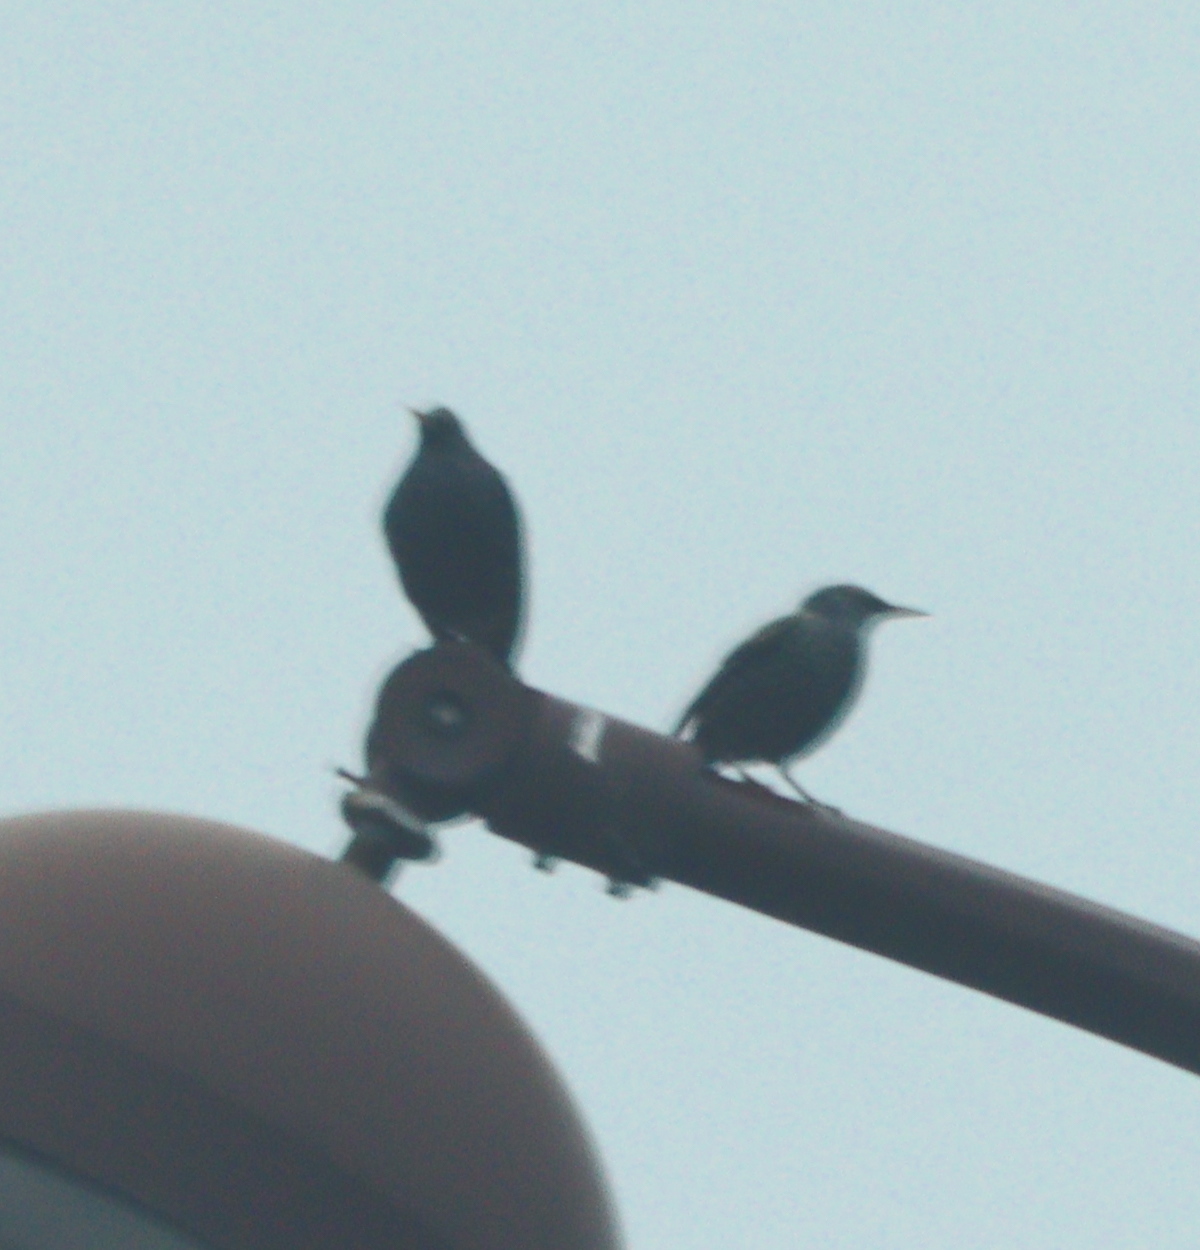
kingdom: Animalia
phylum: Chordata
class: Aves
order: Passeriformes
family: Sturnidae
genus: Sturnus
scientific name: Sturnus vulgaris
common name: Common starling
